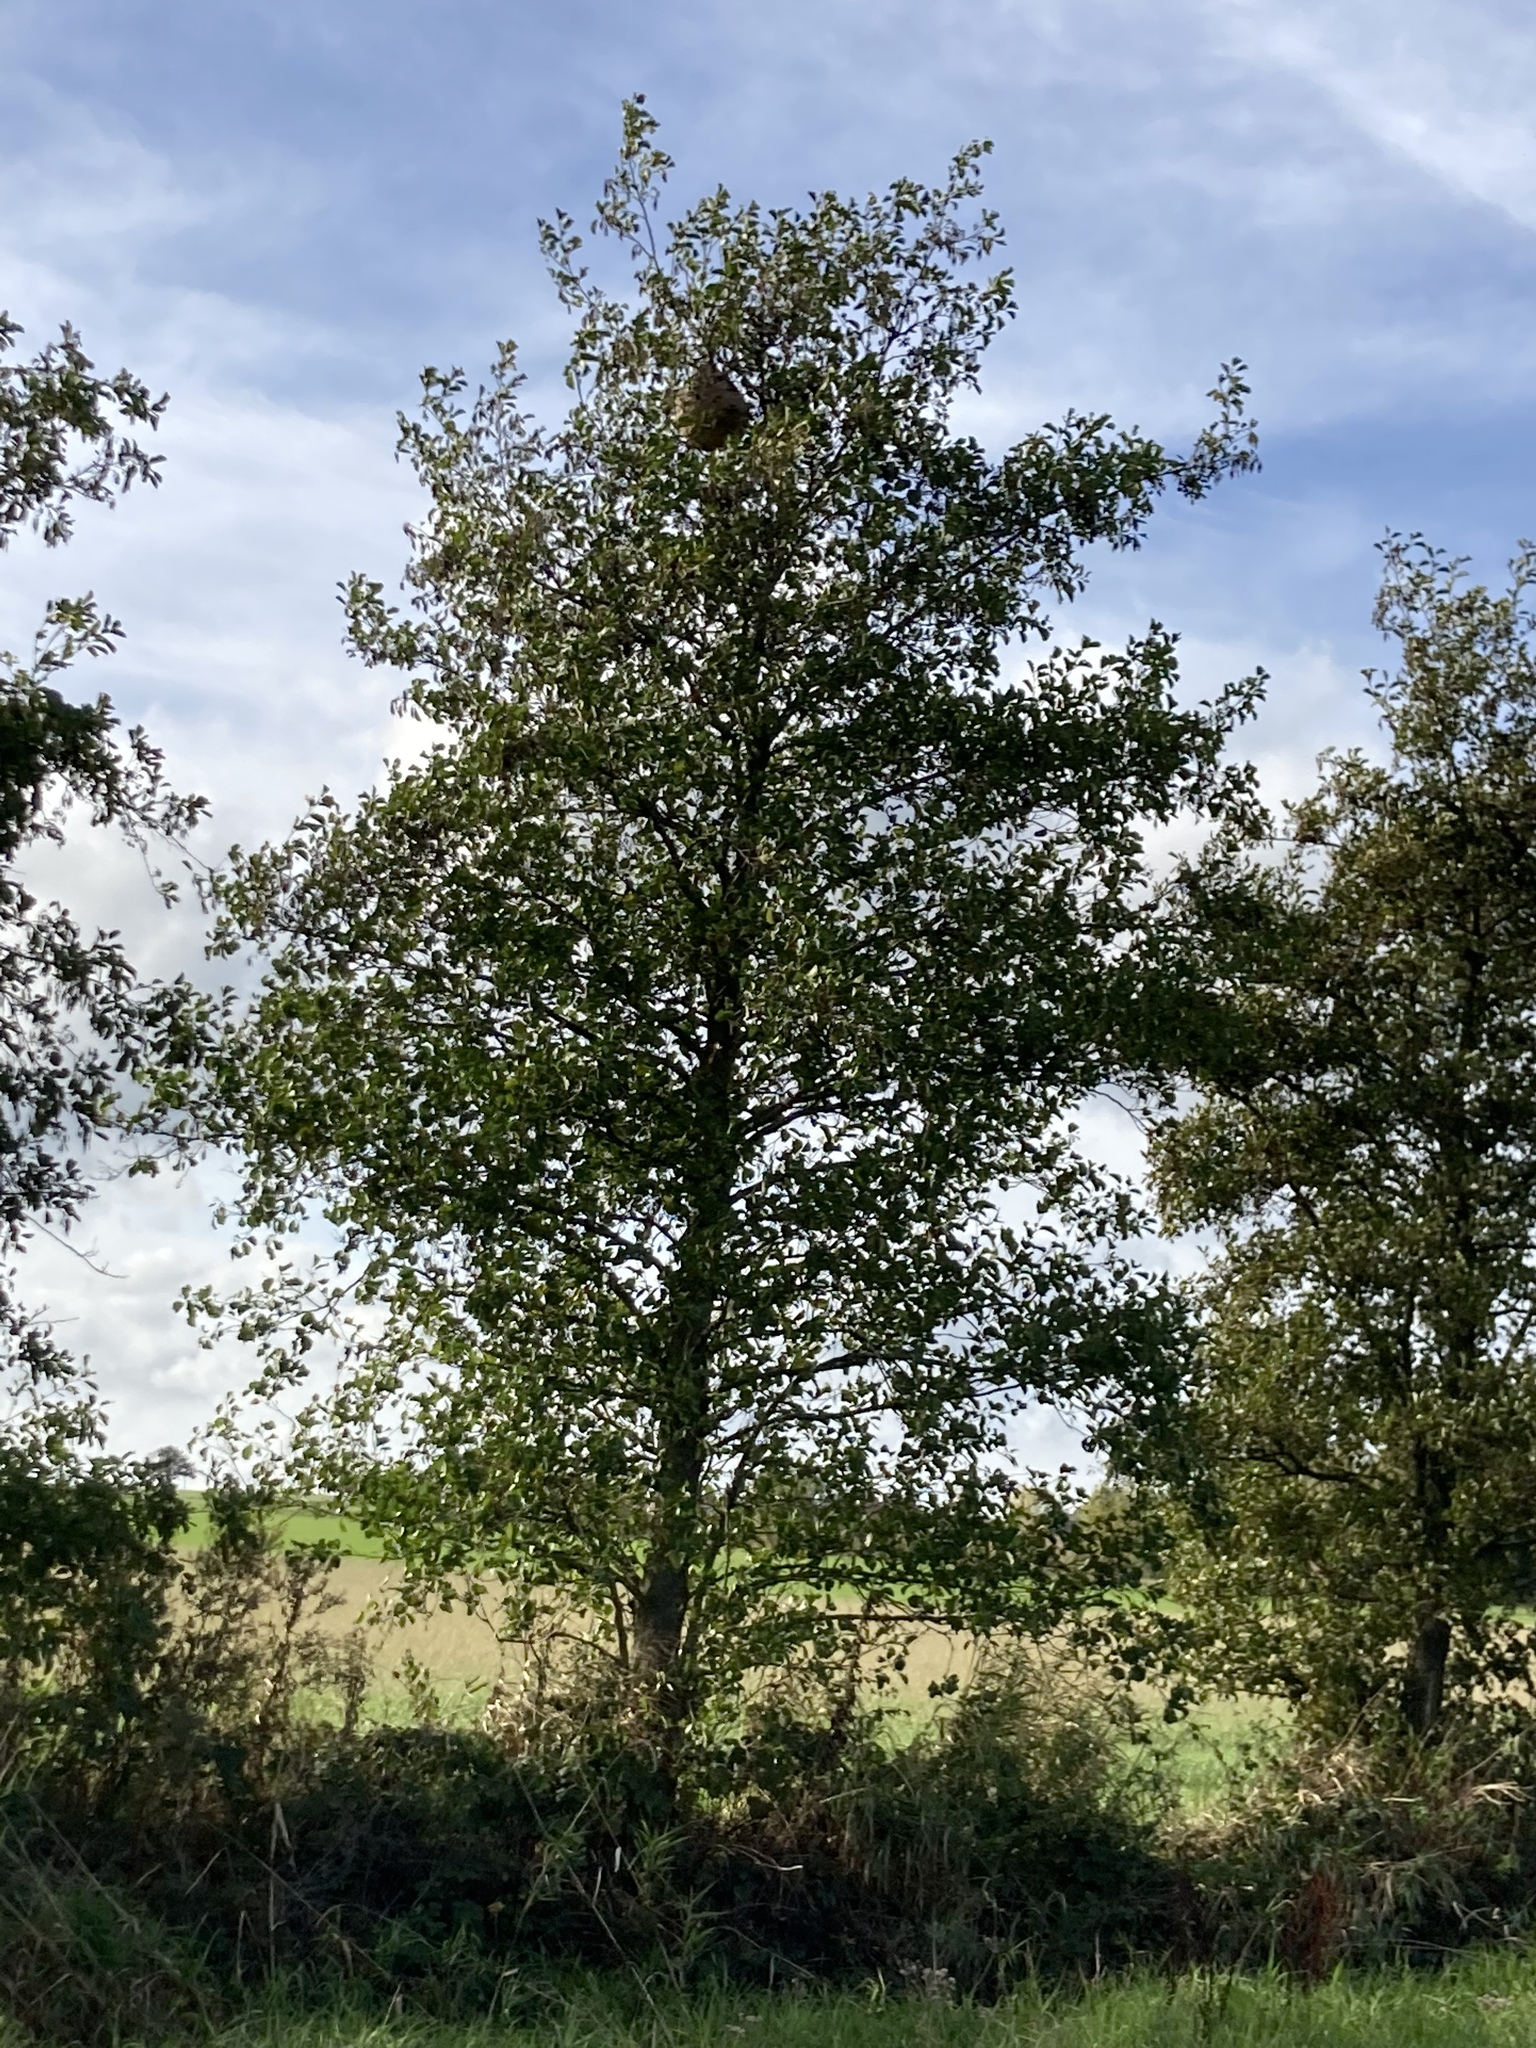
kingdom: Animalia
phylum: Arthropoda
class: Insecta
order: Hymenoptera
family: Vespidae
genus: Vespa
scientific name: Vespa velutina
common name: Asian hornet
